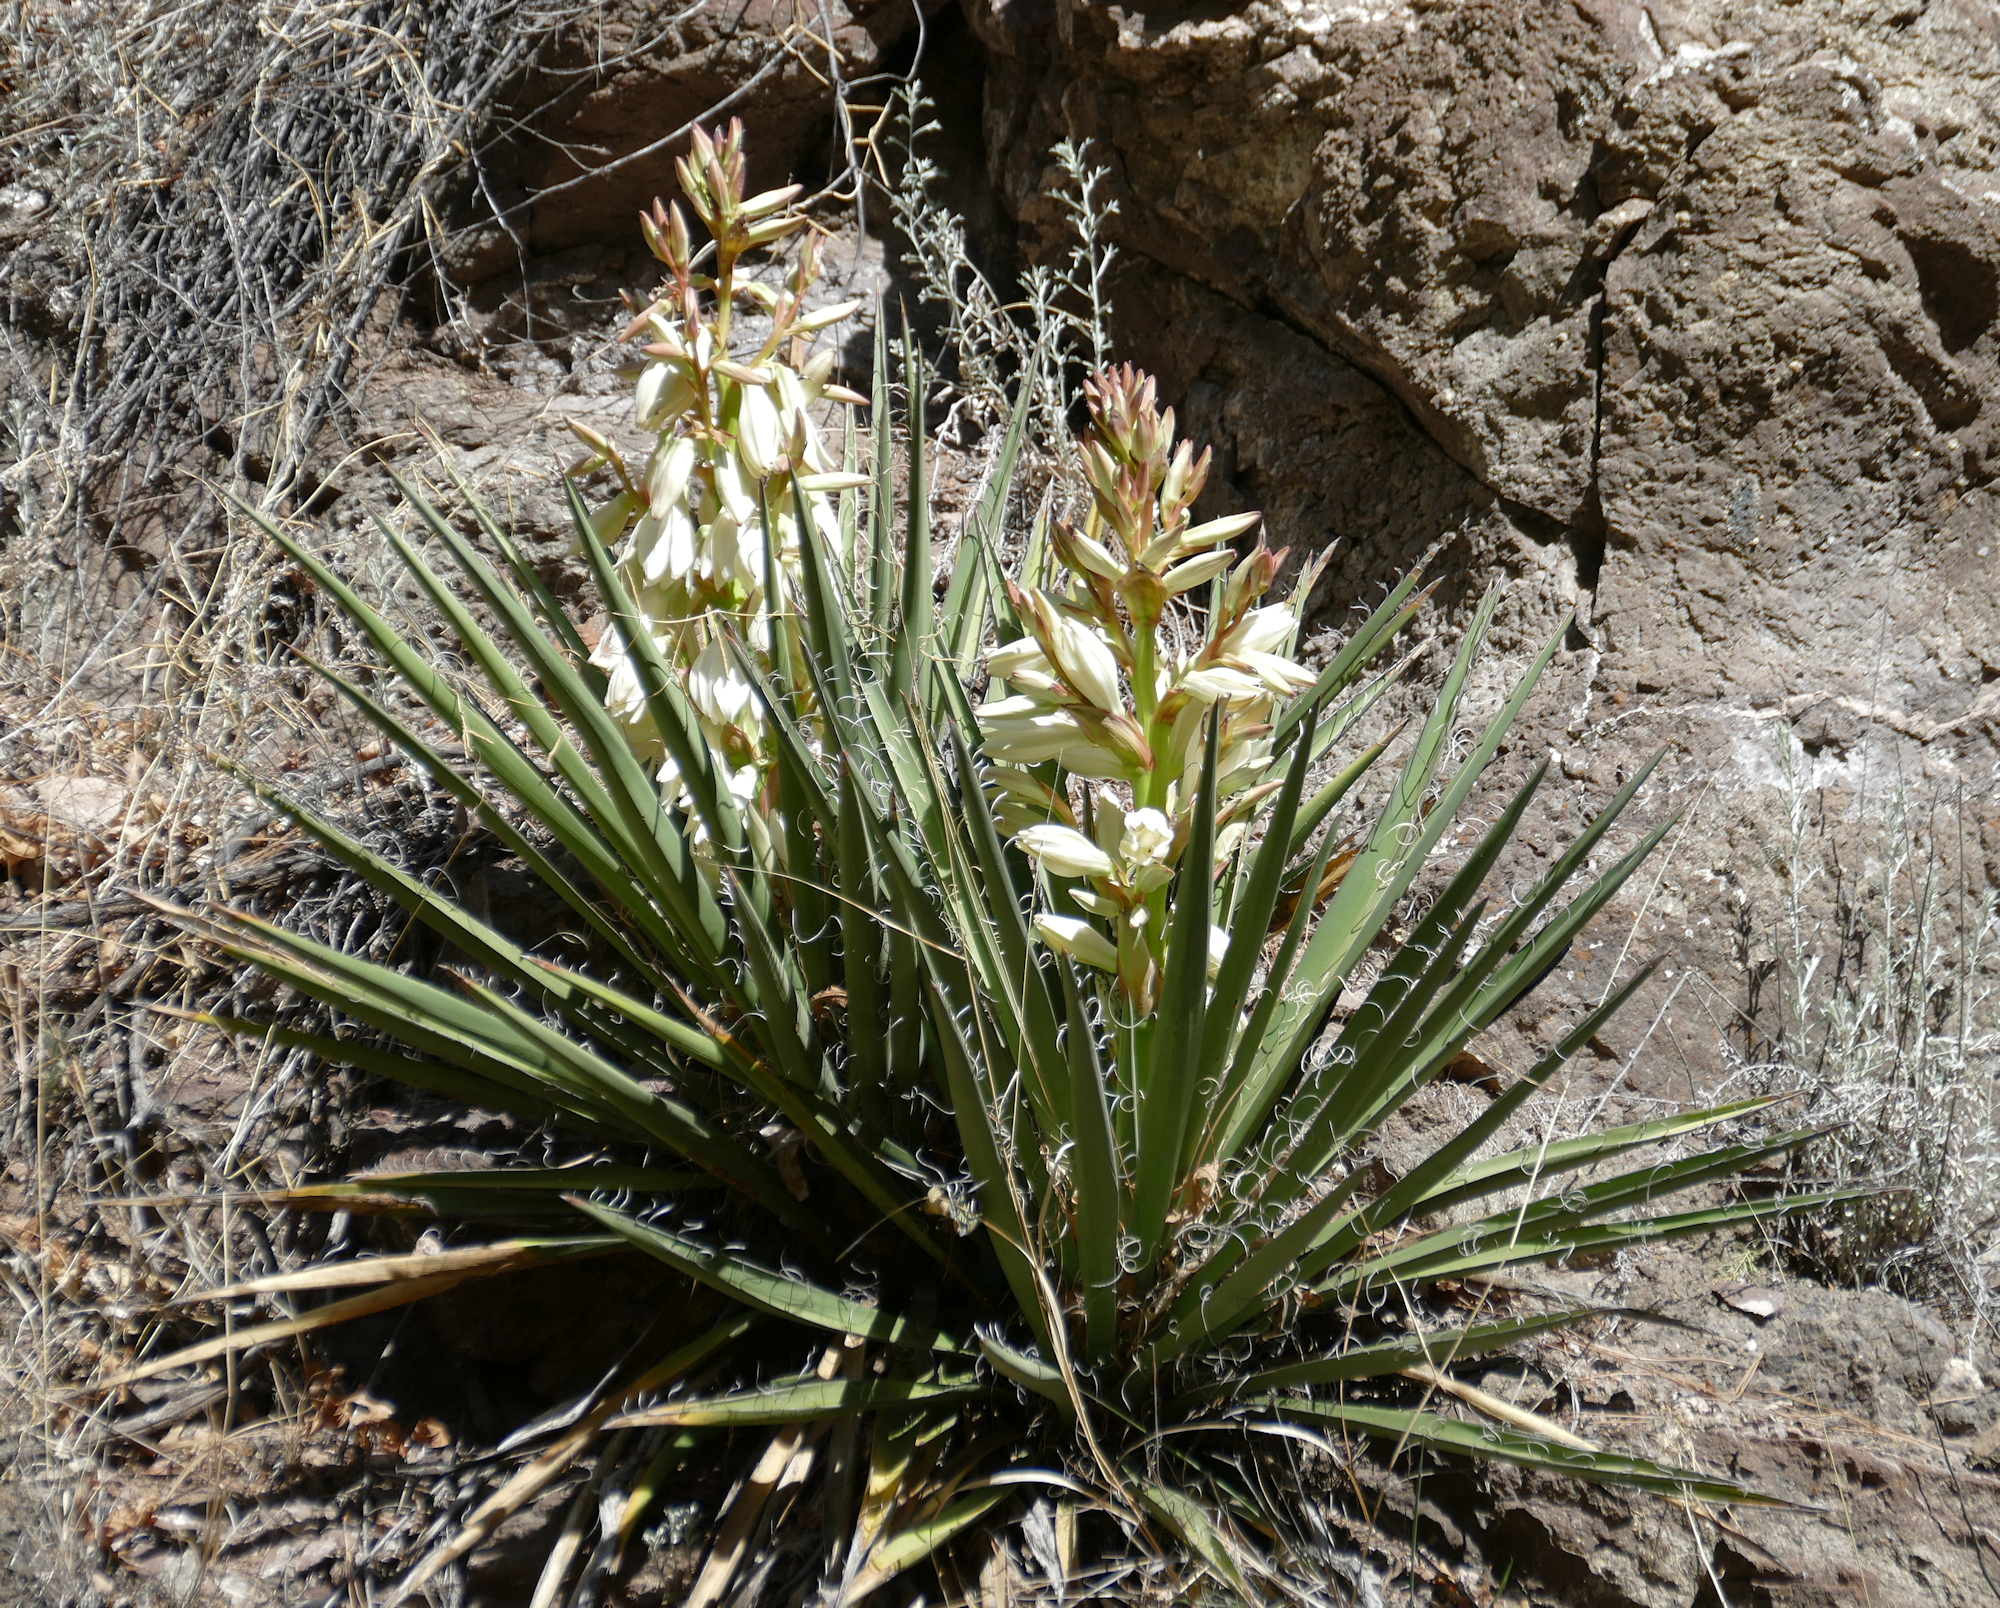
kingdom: Plantae
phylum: Tracheophyta
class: Liliopsida
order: Asparagales
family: Asparagaceae
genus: Yucca
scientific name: Yucca baccata
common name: Banana yucca
